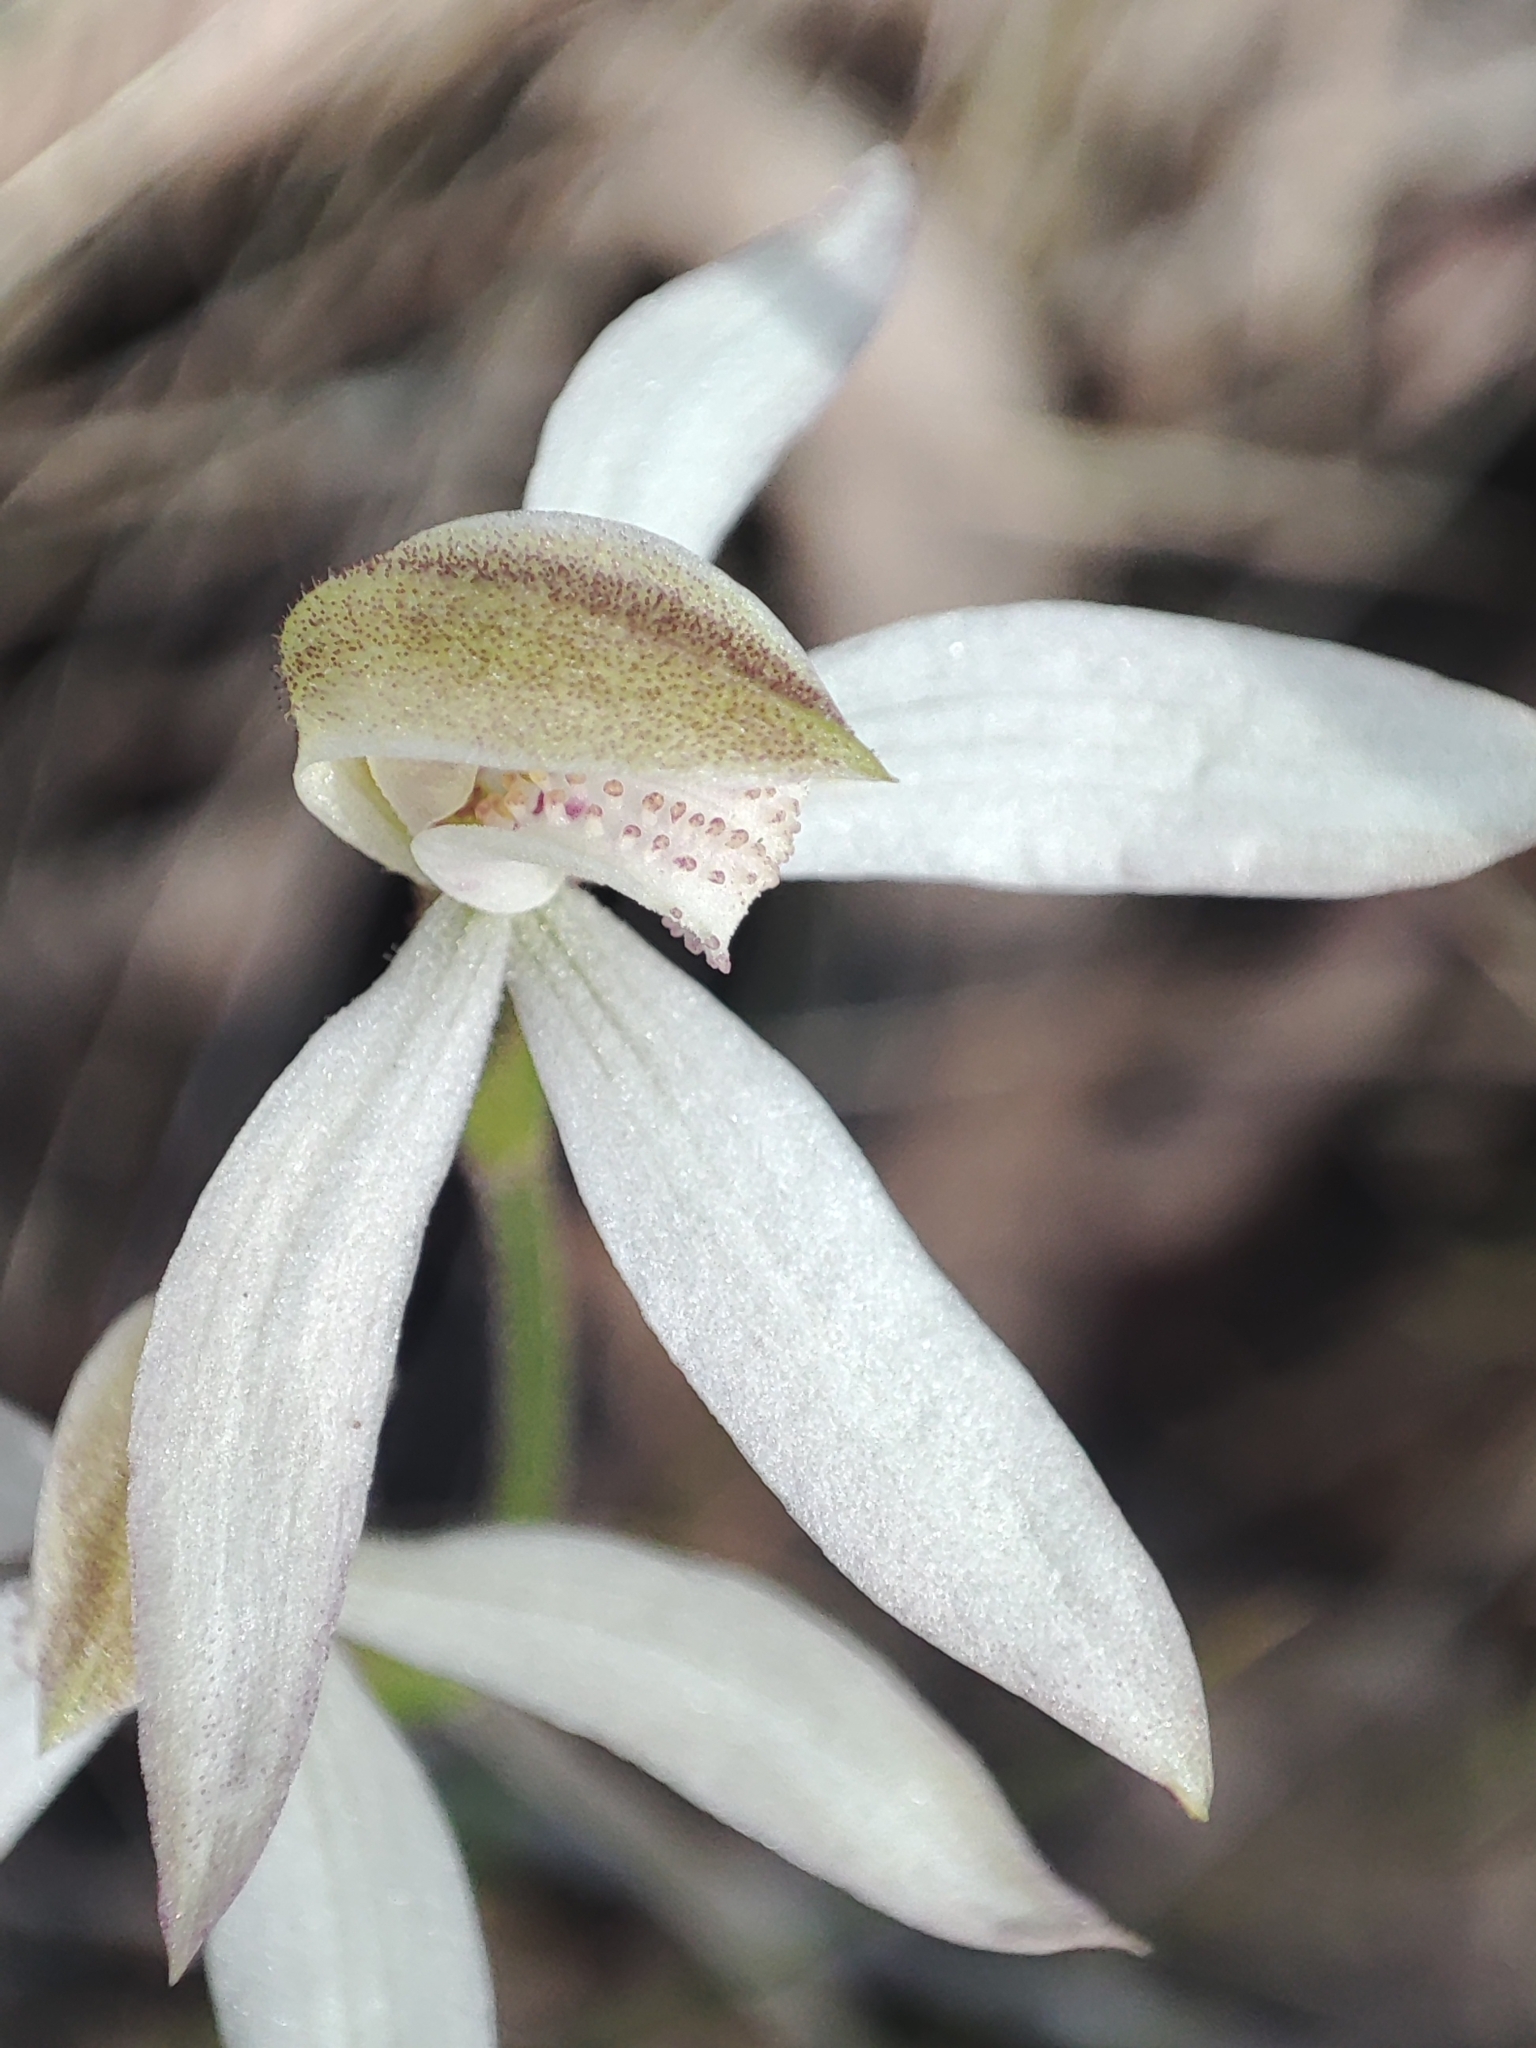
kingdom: Plantae
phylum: Tracheophyta
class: Liliopsida
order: Asparagales
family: Orchidaceae
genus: Caladenia
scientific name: Caladenia moschata
